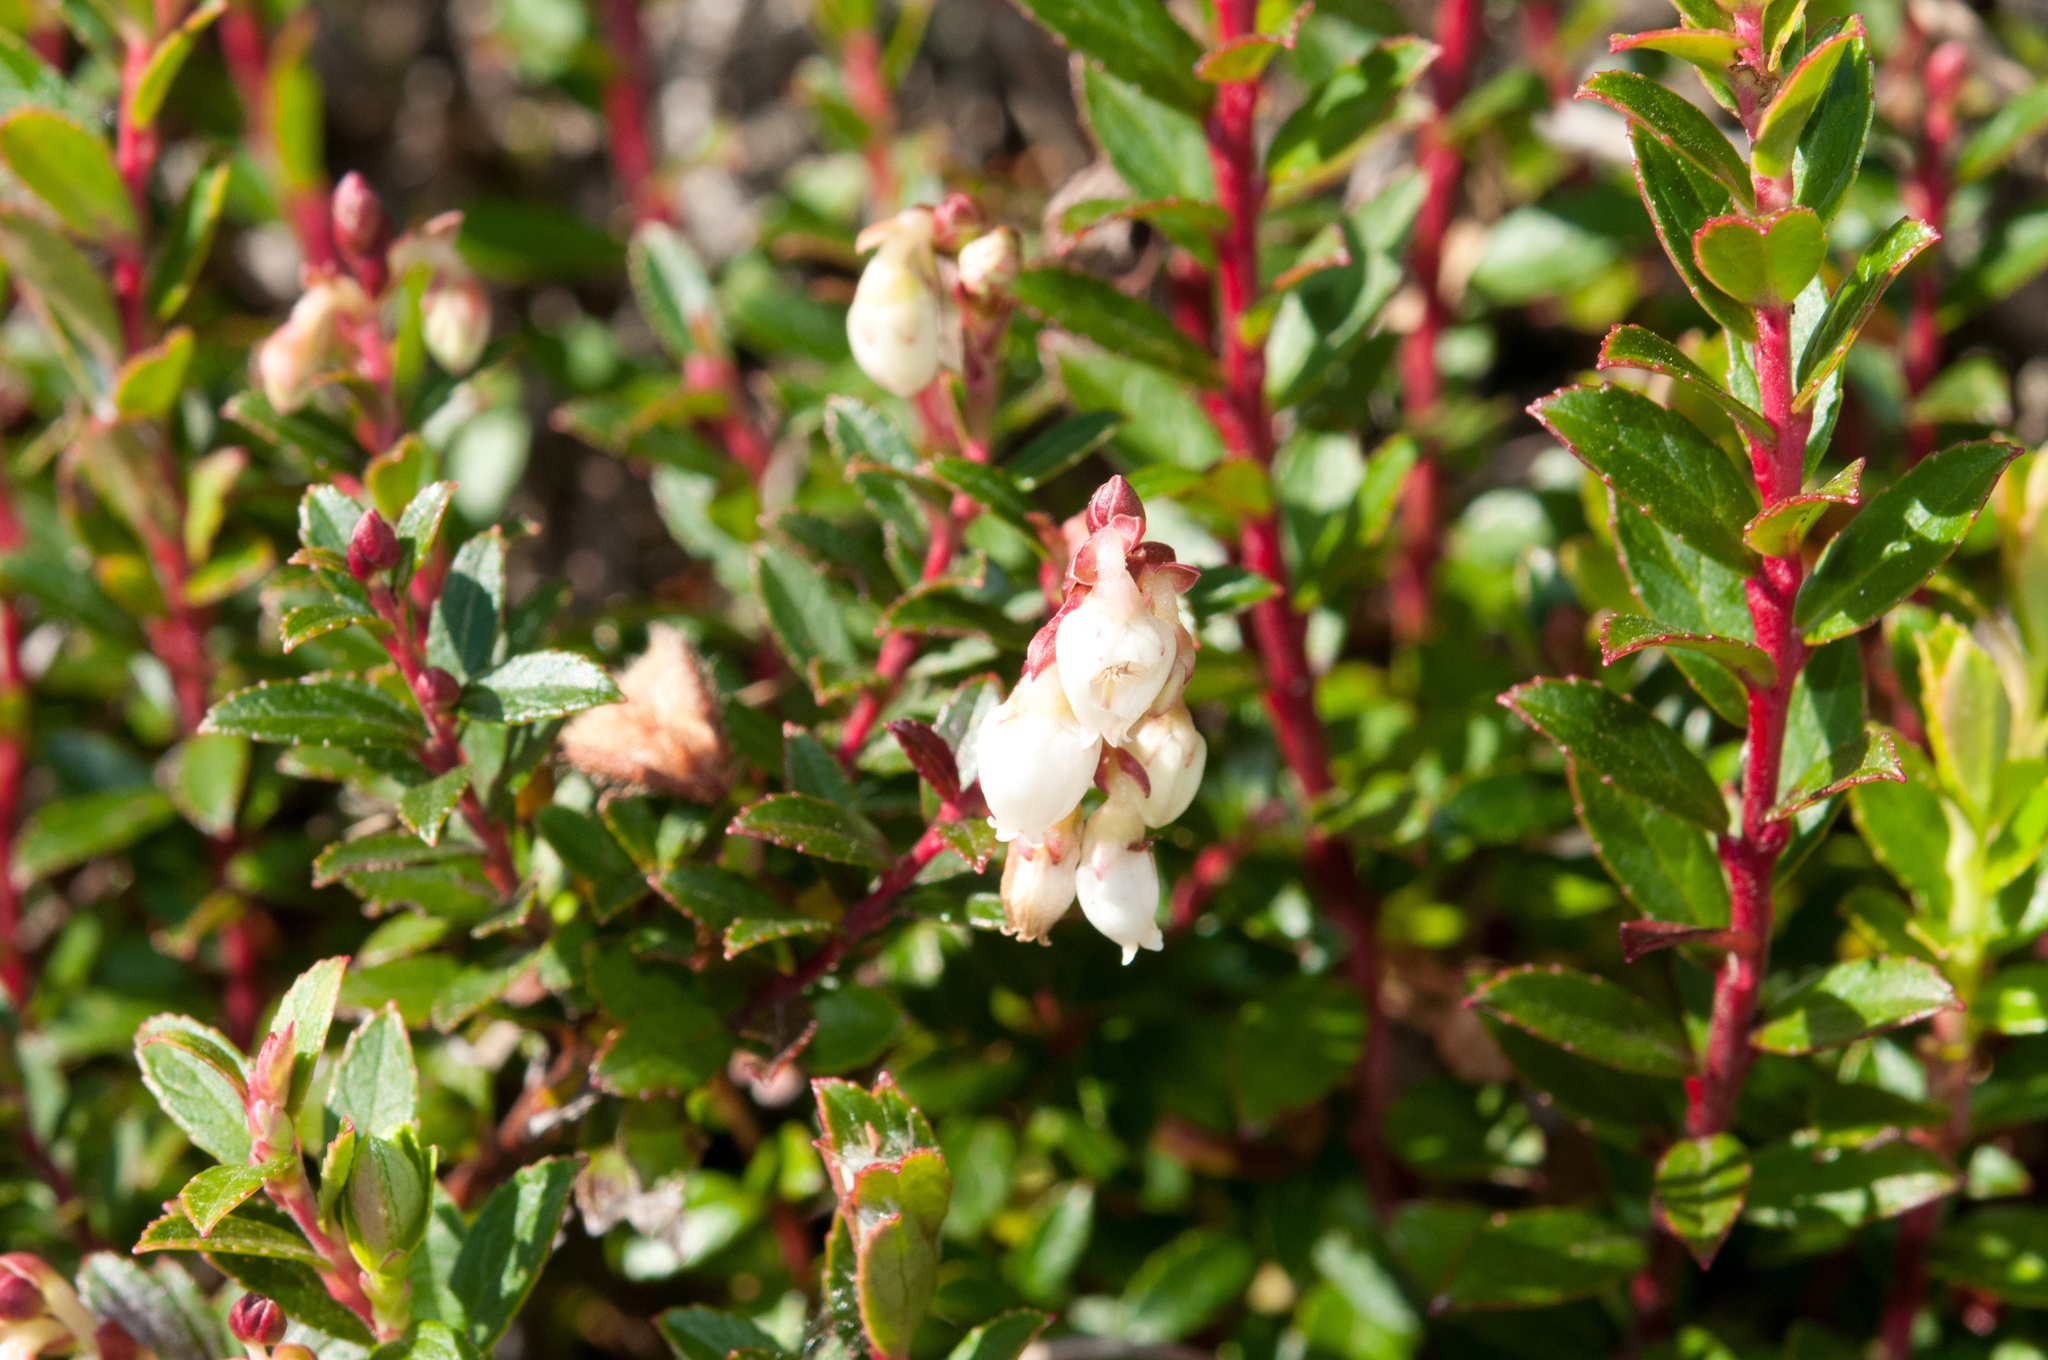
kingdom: Plantae
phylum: Tracheophyta
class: Magnoliopsida
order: Ericales
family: Ericaceae
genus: Gaultheria
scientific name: Gaultheria borneensis
